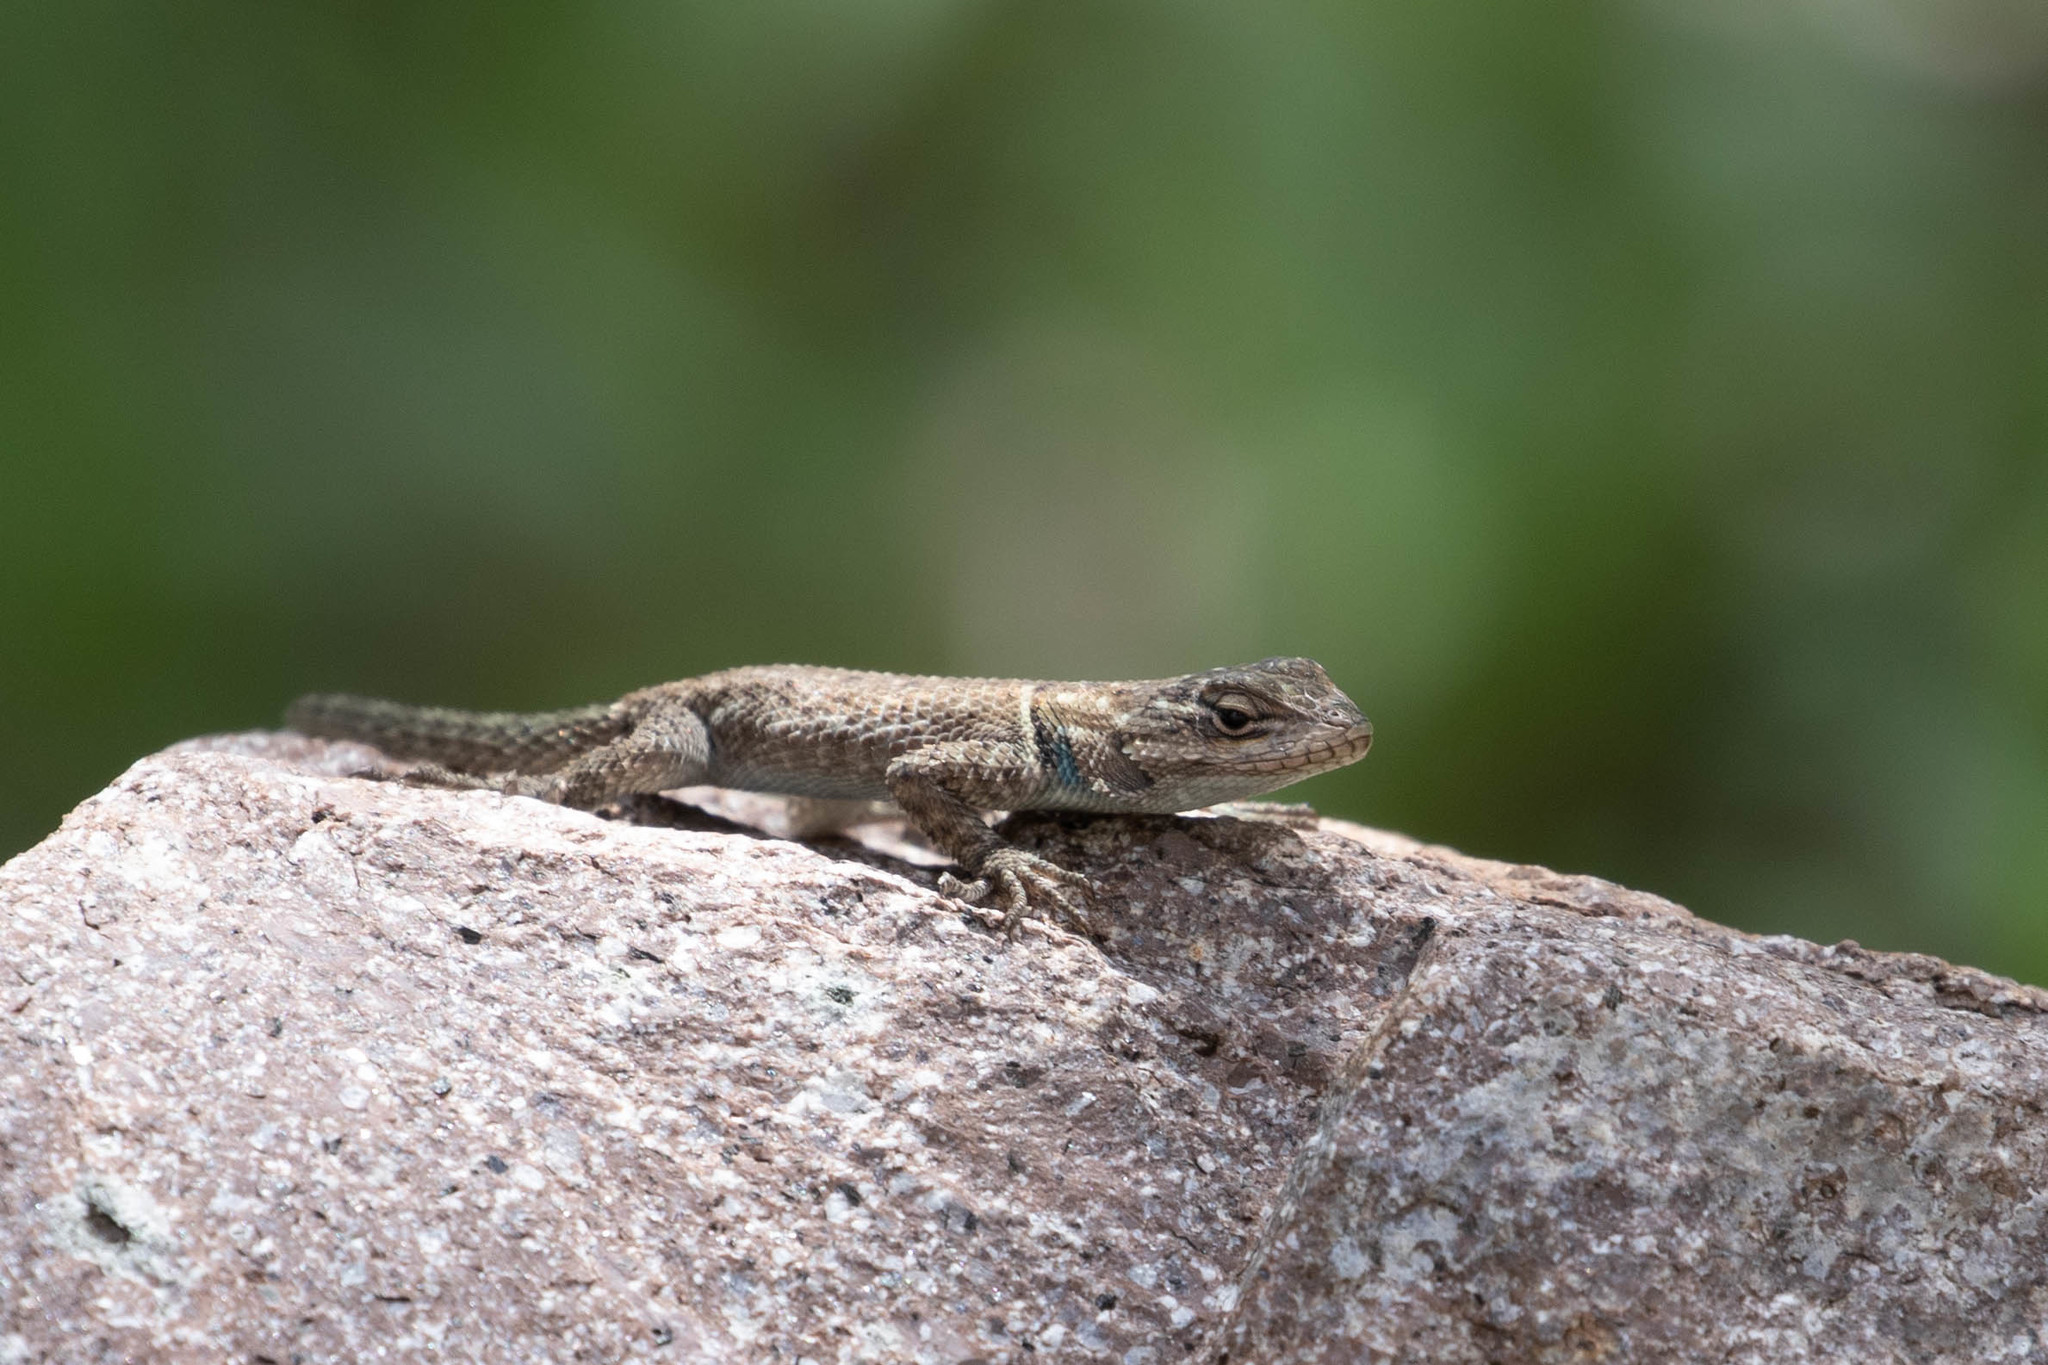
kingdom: Animalia
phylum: Chordata
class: Squamata
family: Phrynosomatidae
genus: Sceloporus
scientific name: Sceloporus jarrovii
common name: Yarrow's spiny lizard
